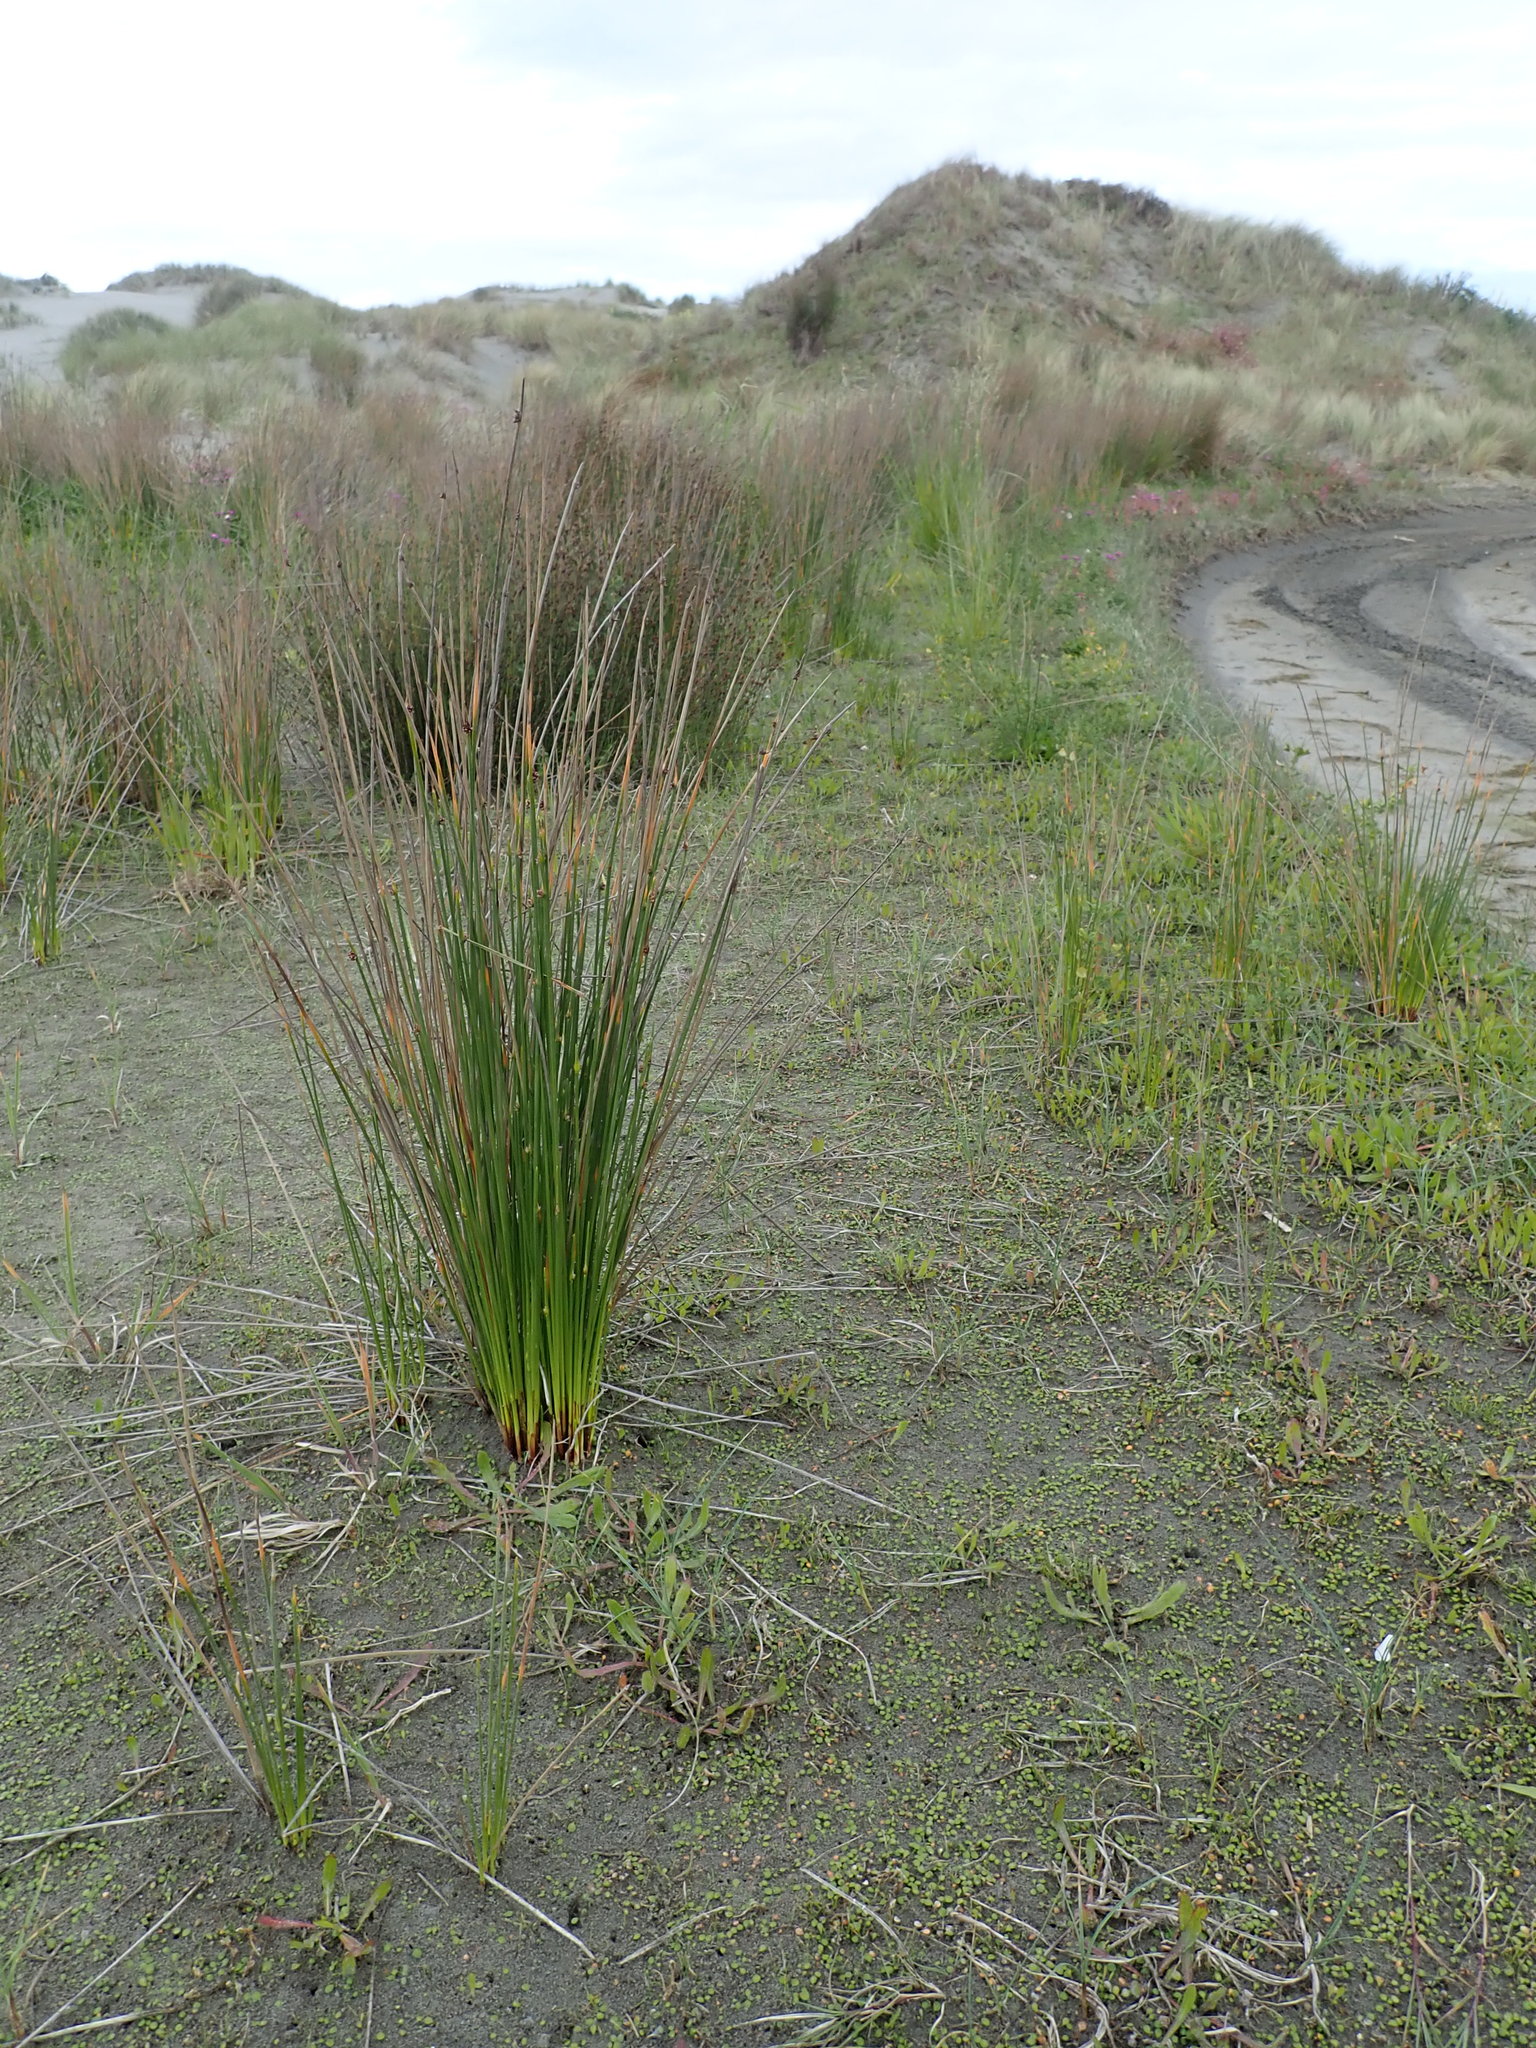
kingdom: Plantae
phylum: Tracheophyta
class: Liliopsida
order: Poales
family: Cyperaceae
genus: Ficinia
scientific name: Ficinia nodosa
